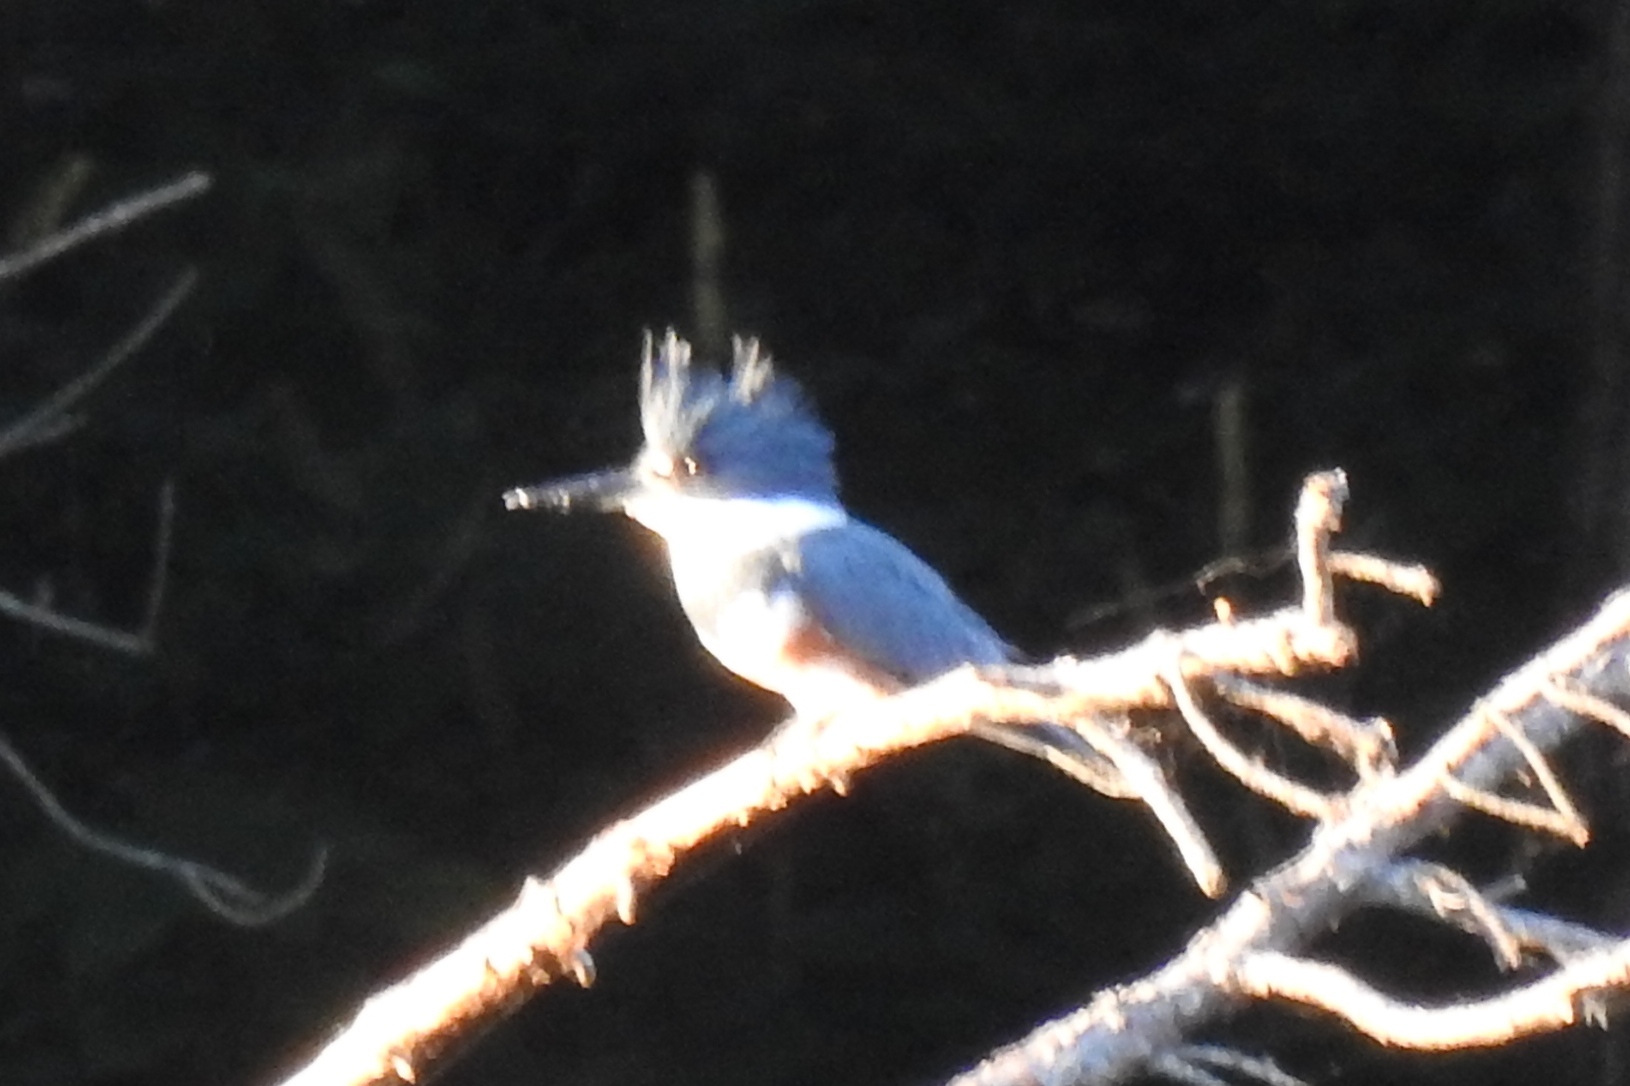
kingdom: Animalia
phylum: Chordata
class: Aves
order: Coraciiformes
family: Alcedinidae
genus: Megaceryle
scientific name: Megaceryle alcyon
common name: Belted kingfisher
